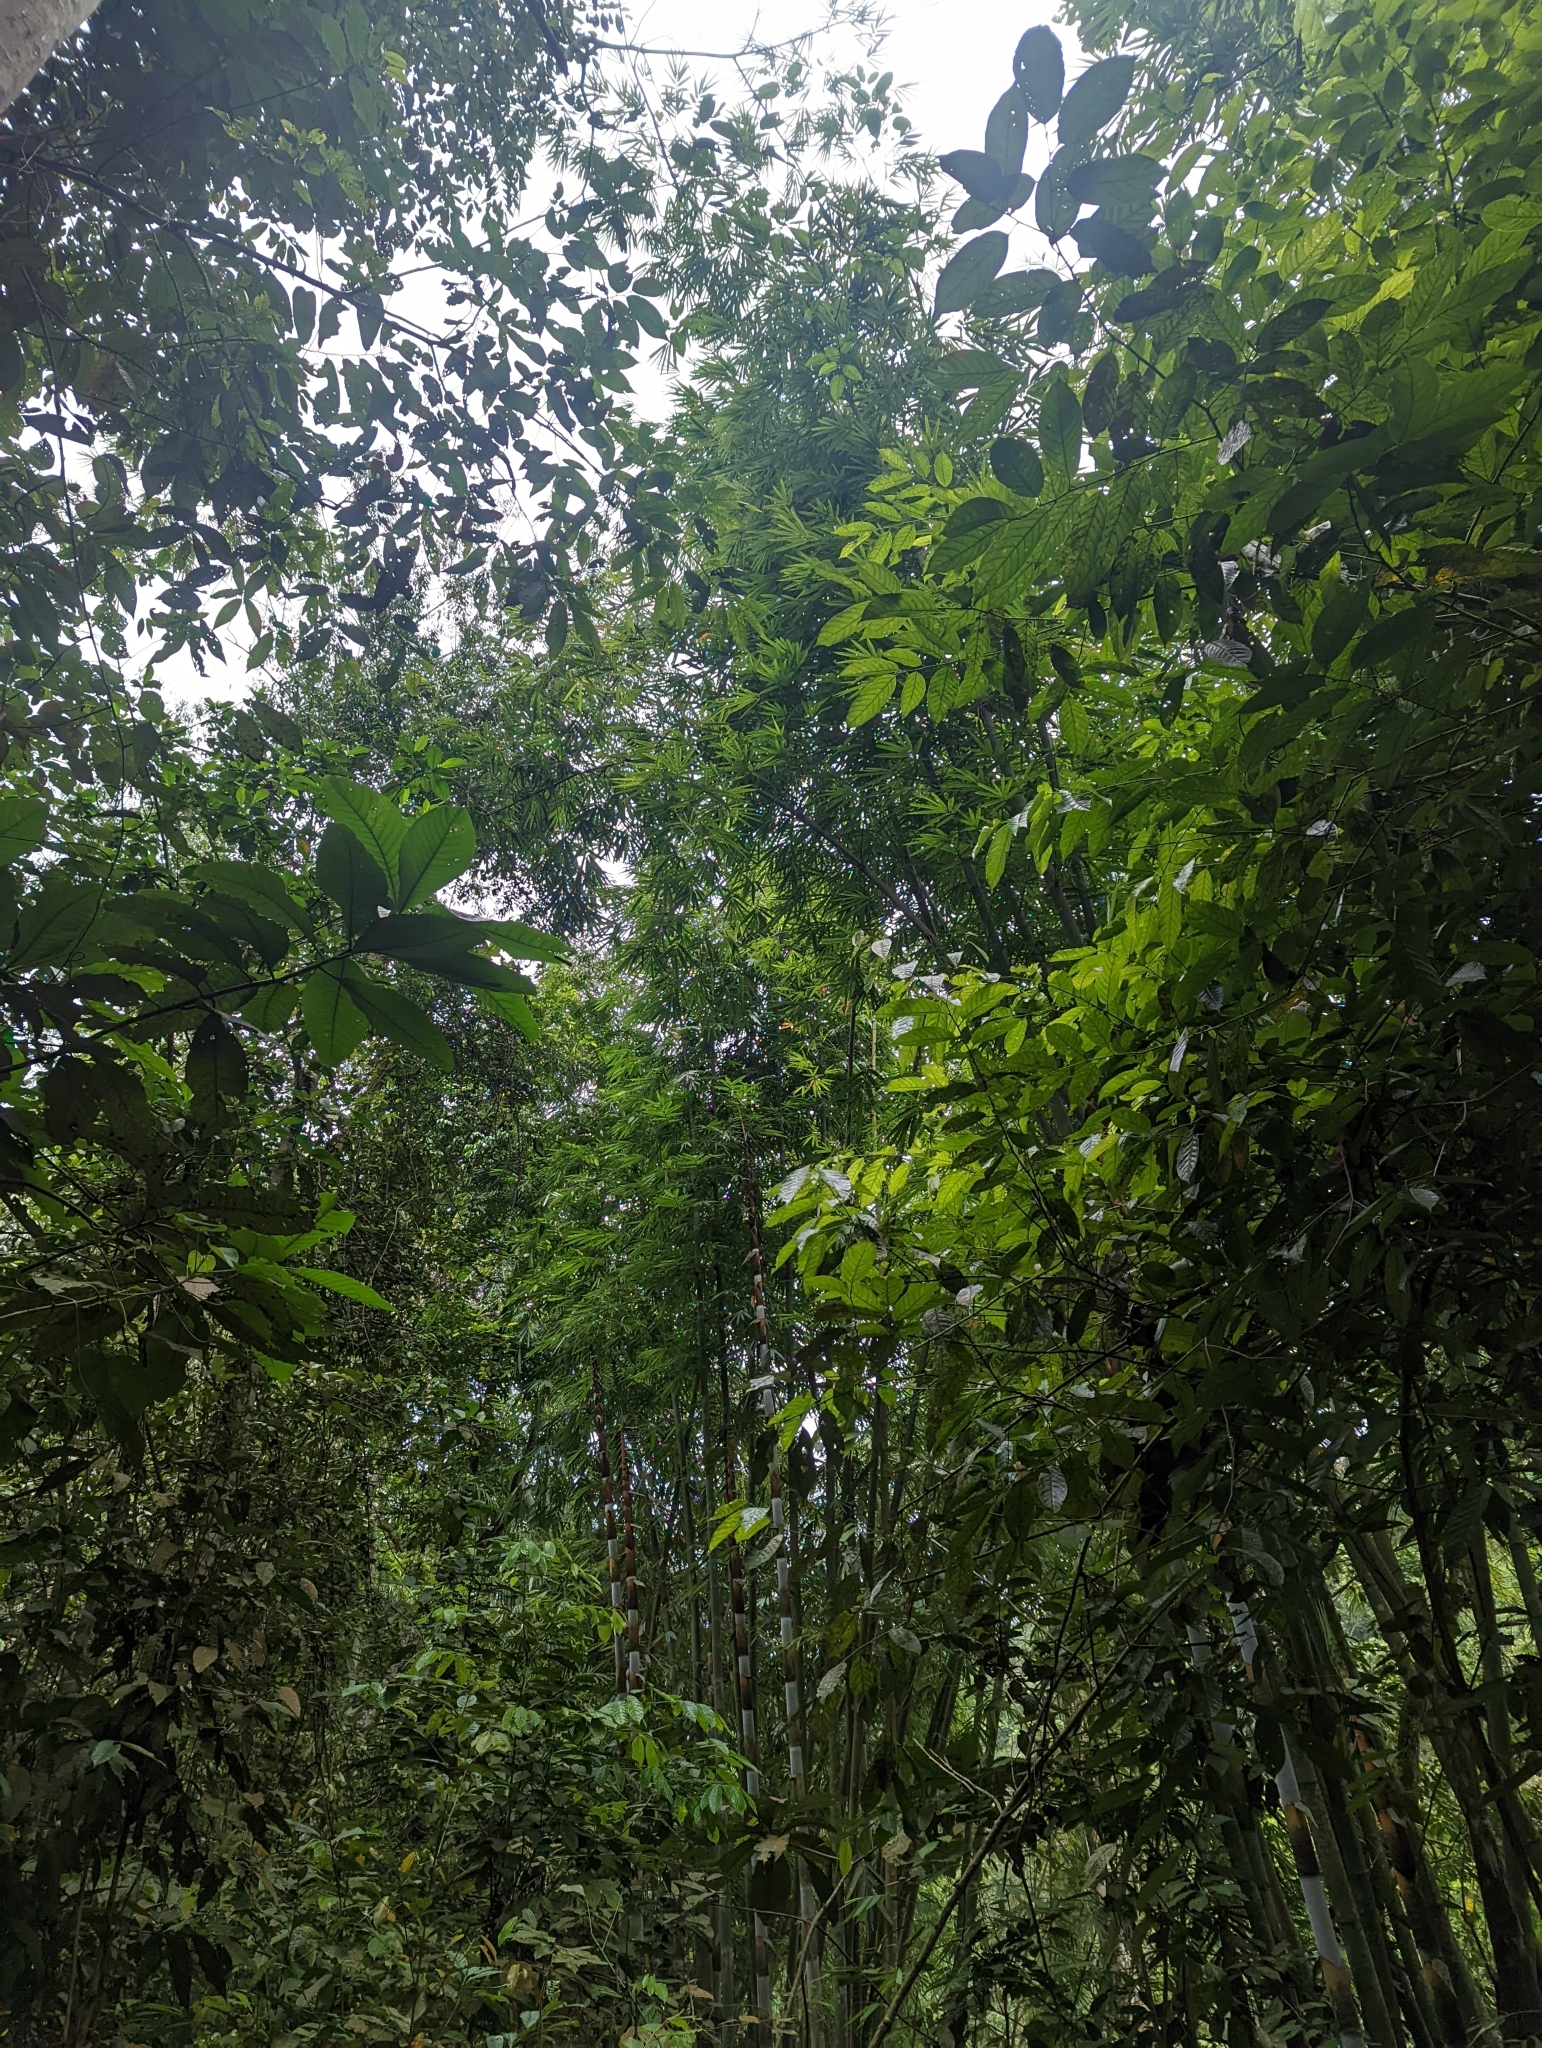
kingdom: Animalia
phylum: Chordata
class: Mammalia
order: Primates
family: Cercopithecidae
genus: Trachypithecus
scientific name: Trachypithecus selangorensis
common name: Selangor silvery langur
